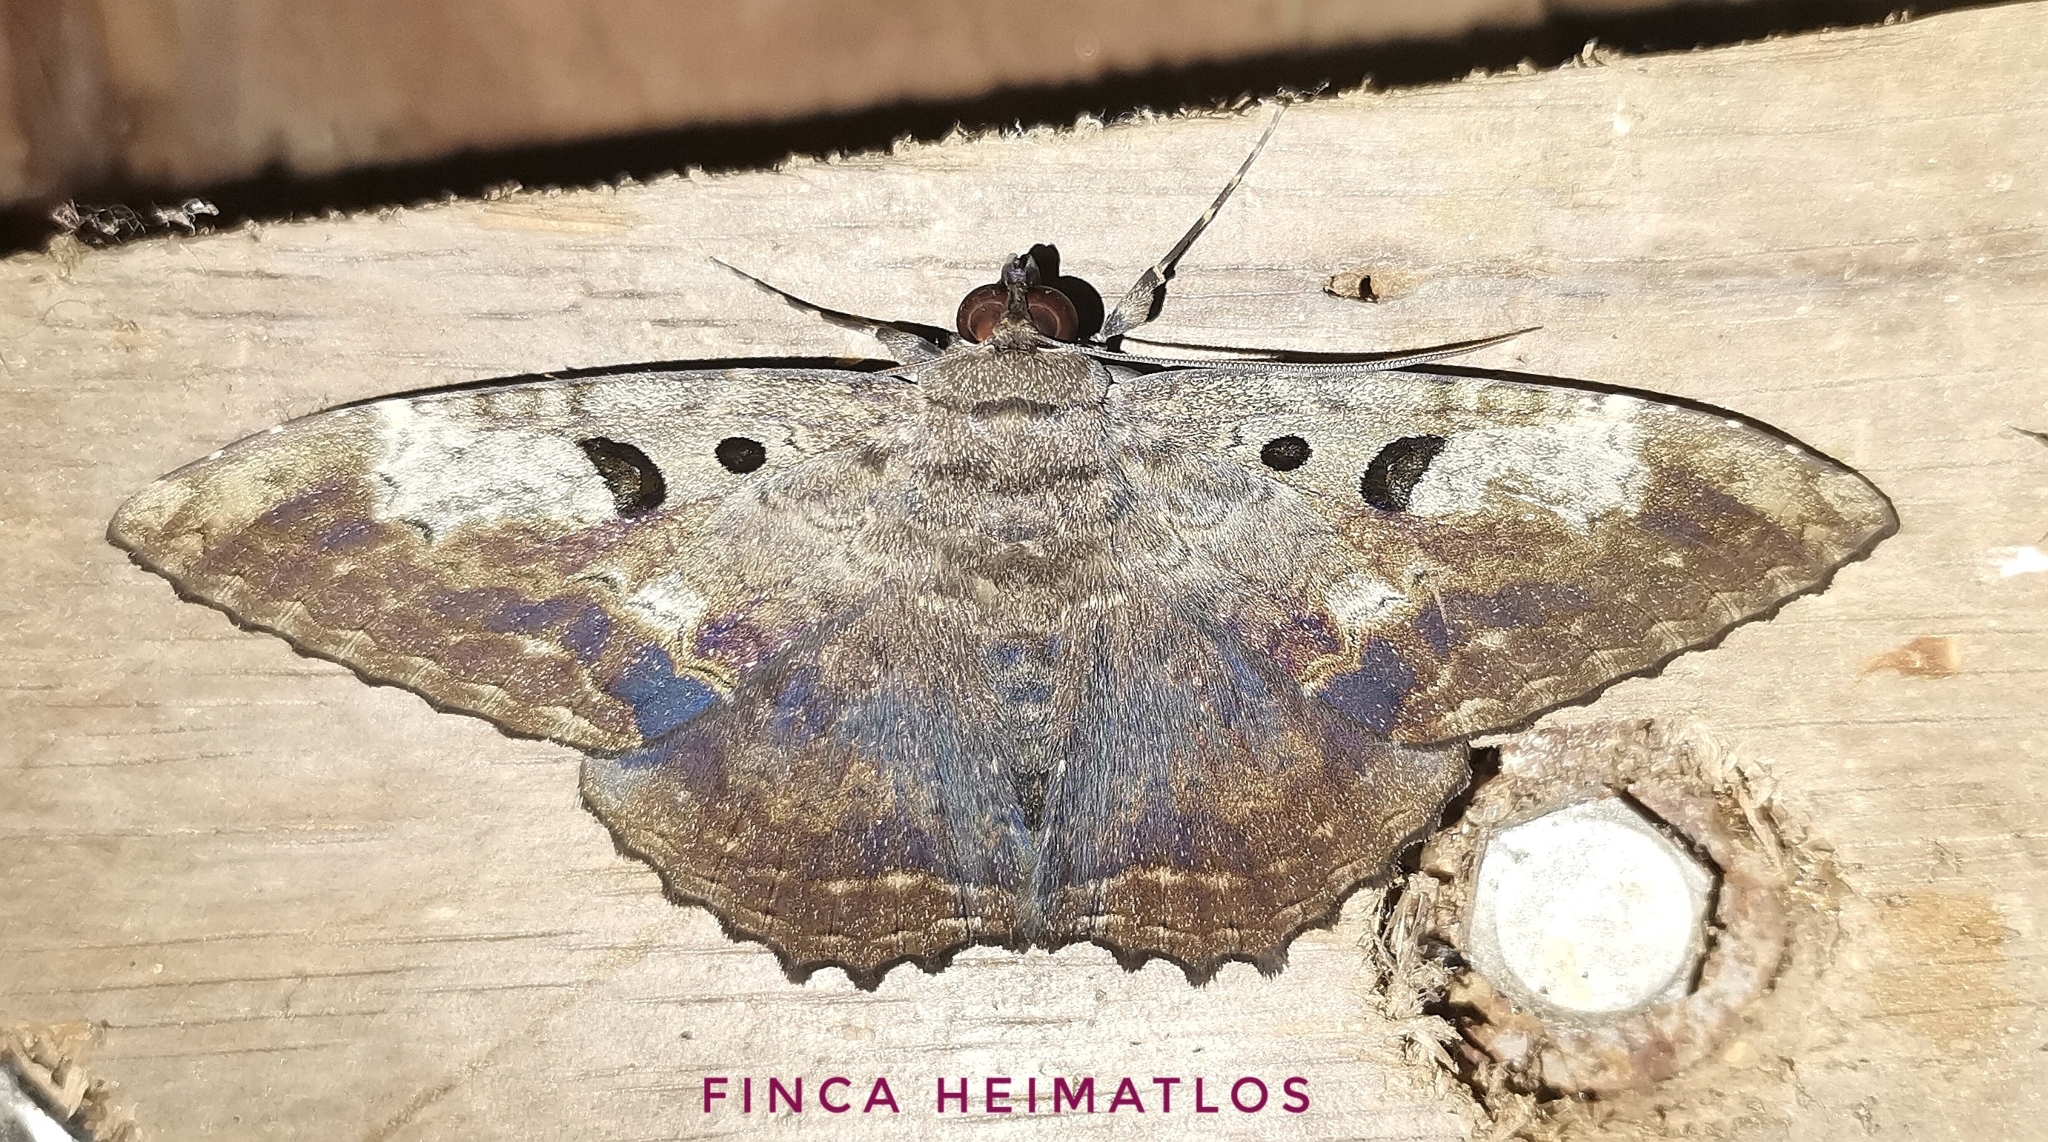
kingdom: Animalia
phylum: Arthropoda
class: Insecta
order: Lepidoptera
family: Erebidae
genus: Feigeria
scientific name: Feigeria magna
